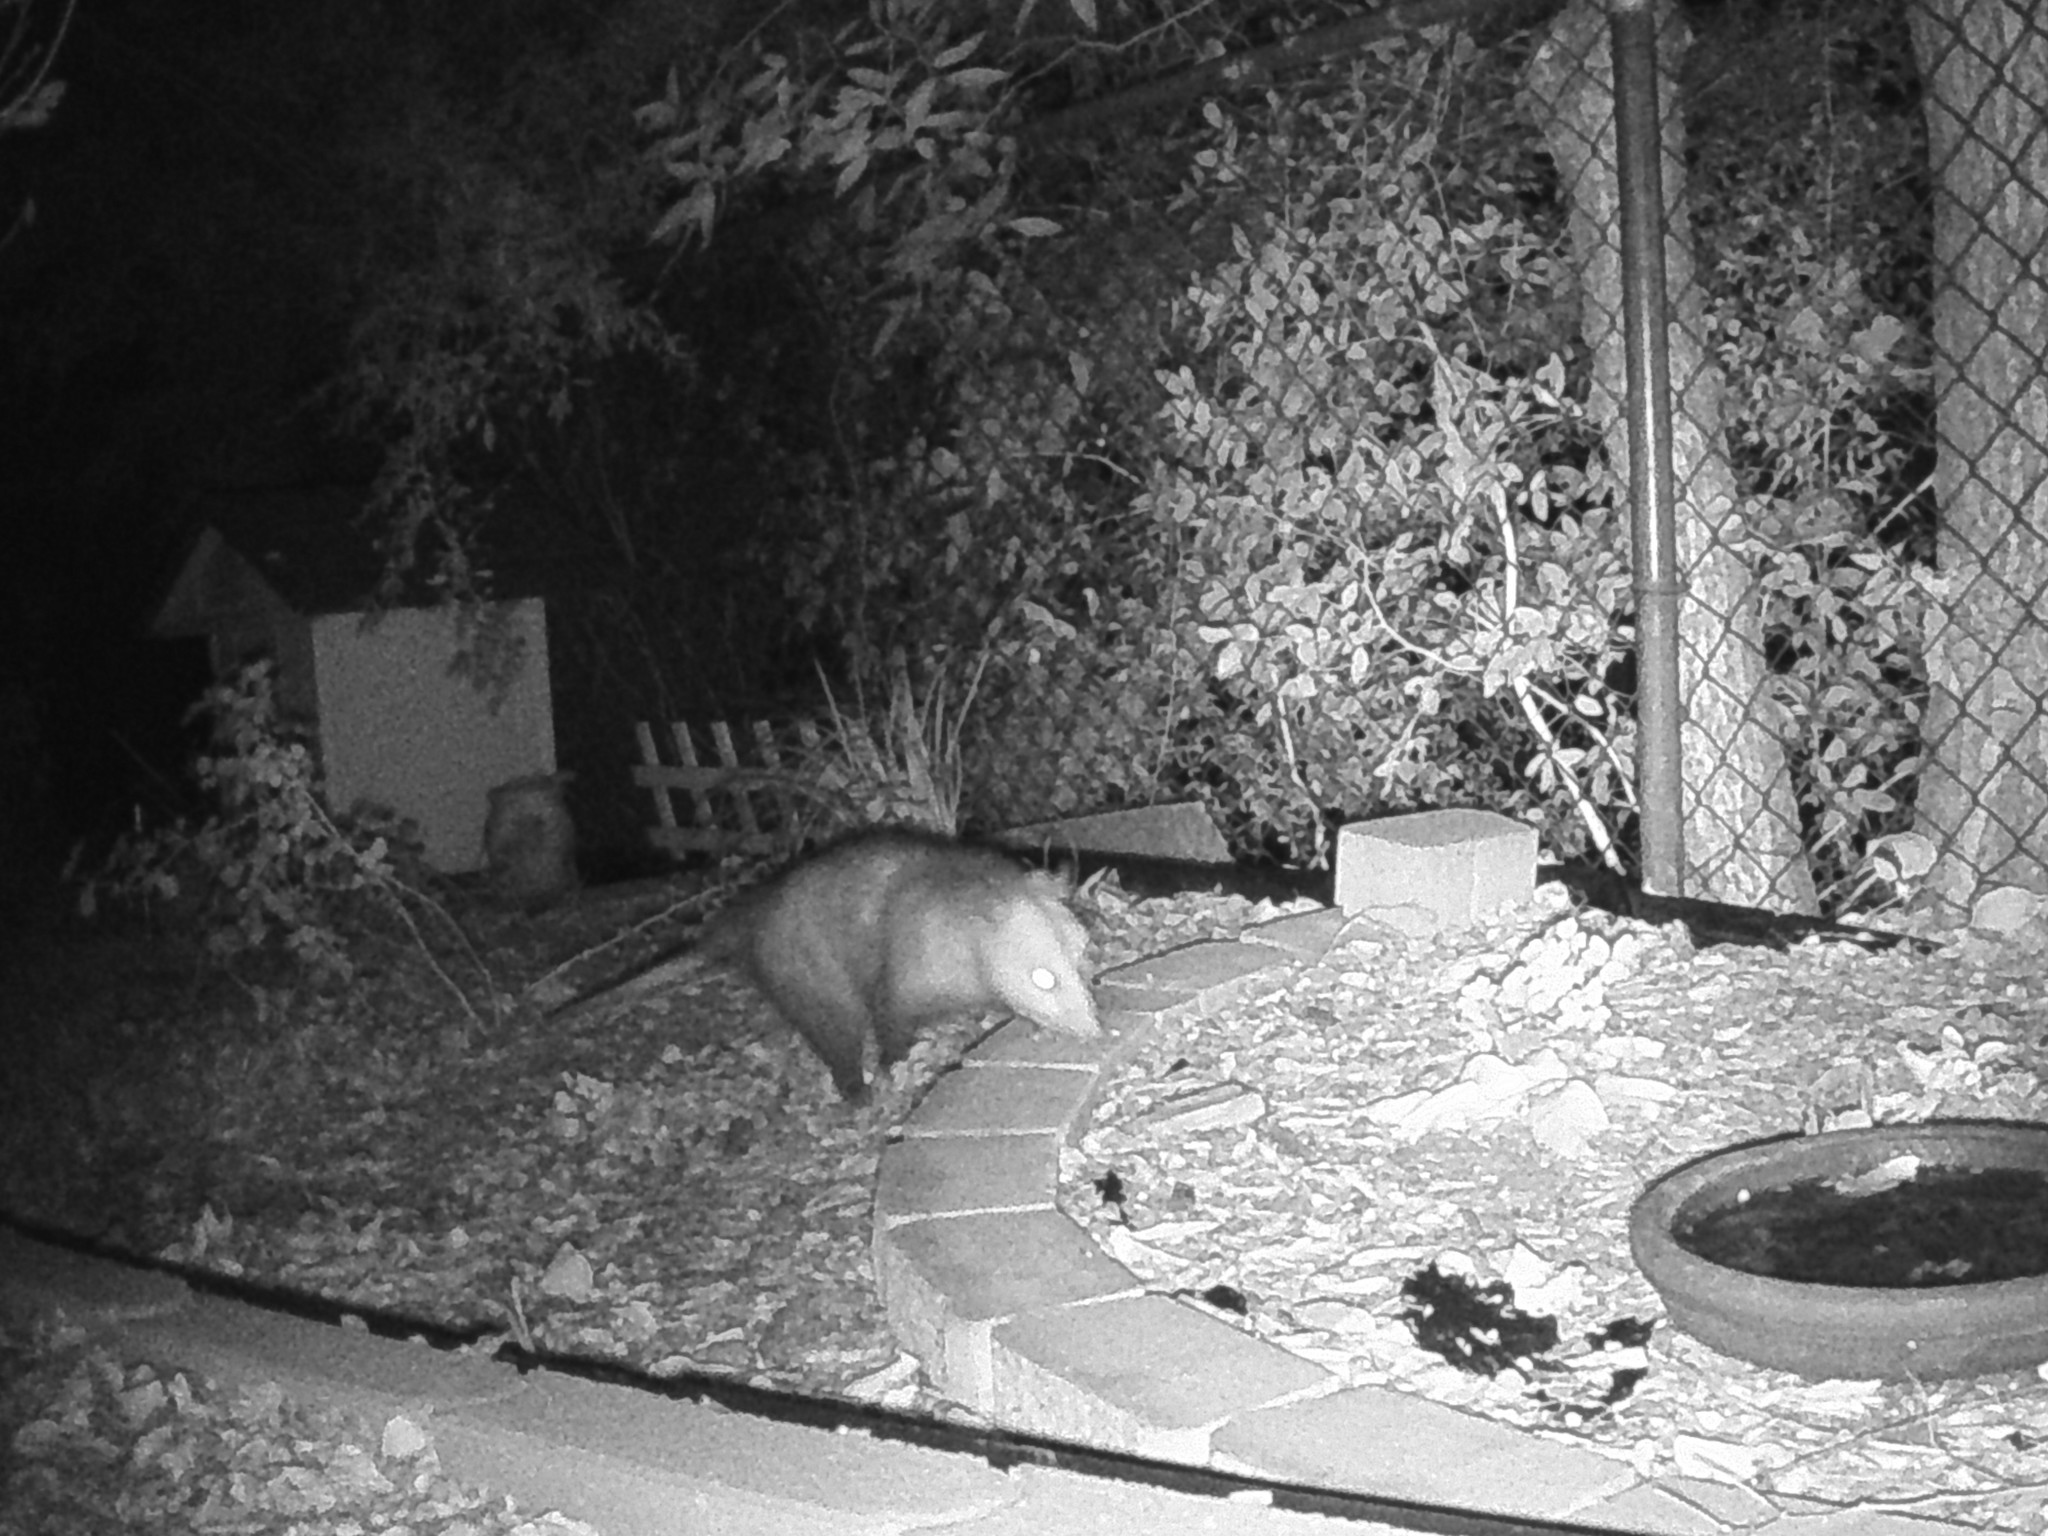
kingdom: Animalia
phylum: Chordata
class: Mammalia
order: Didelphimorphia
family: Didelphidae
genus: Didelphis
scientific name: Didelphis virginiana
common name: Virginia opossum
